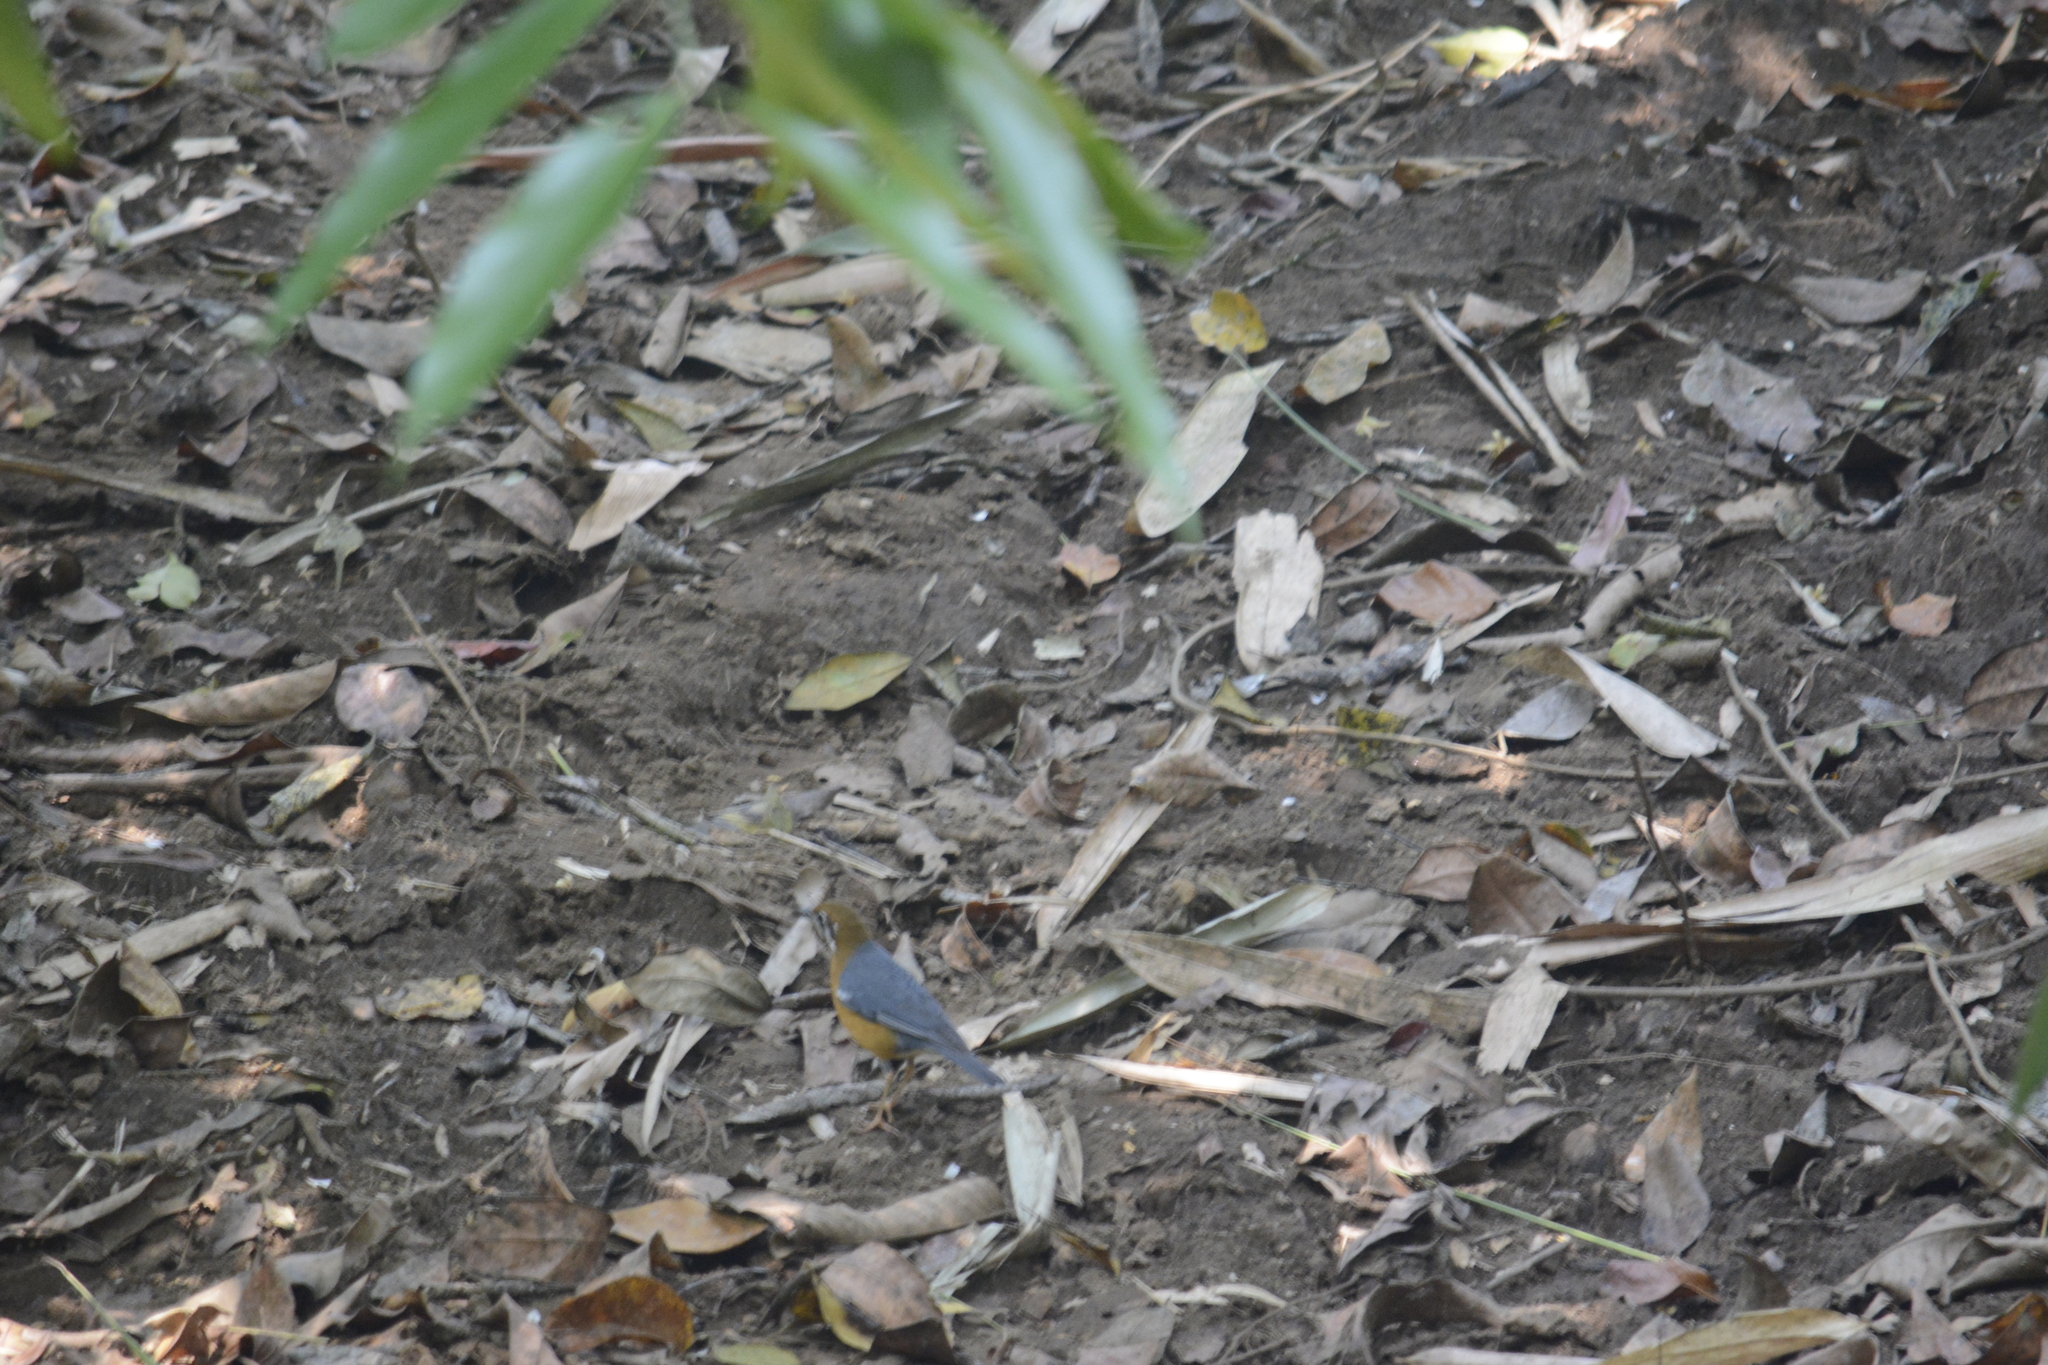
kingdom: Animalia
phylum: Chordata
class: Aves
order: Passeriformes
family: Turdidae
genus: Geokichla
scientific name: Geokichla citrina
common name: Orange-headed thrush
